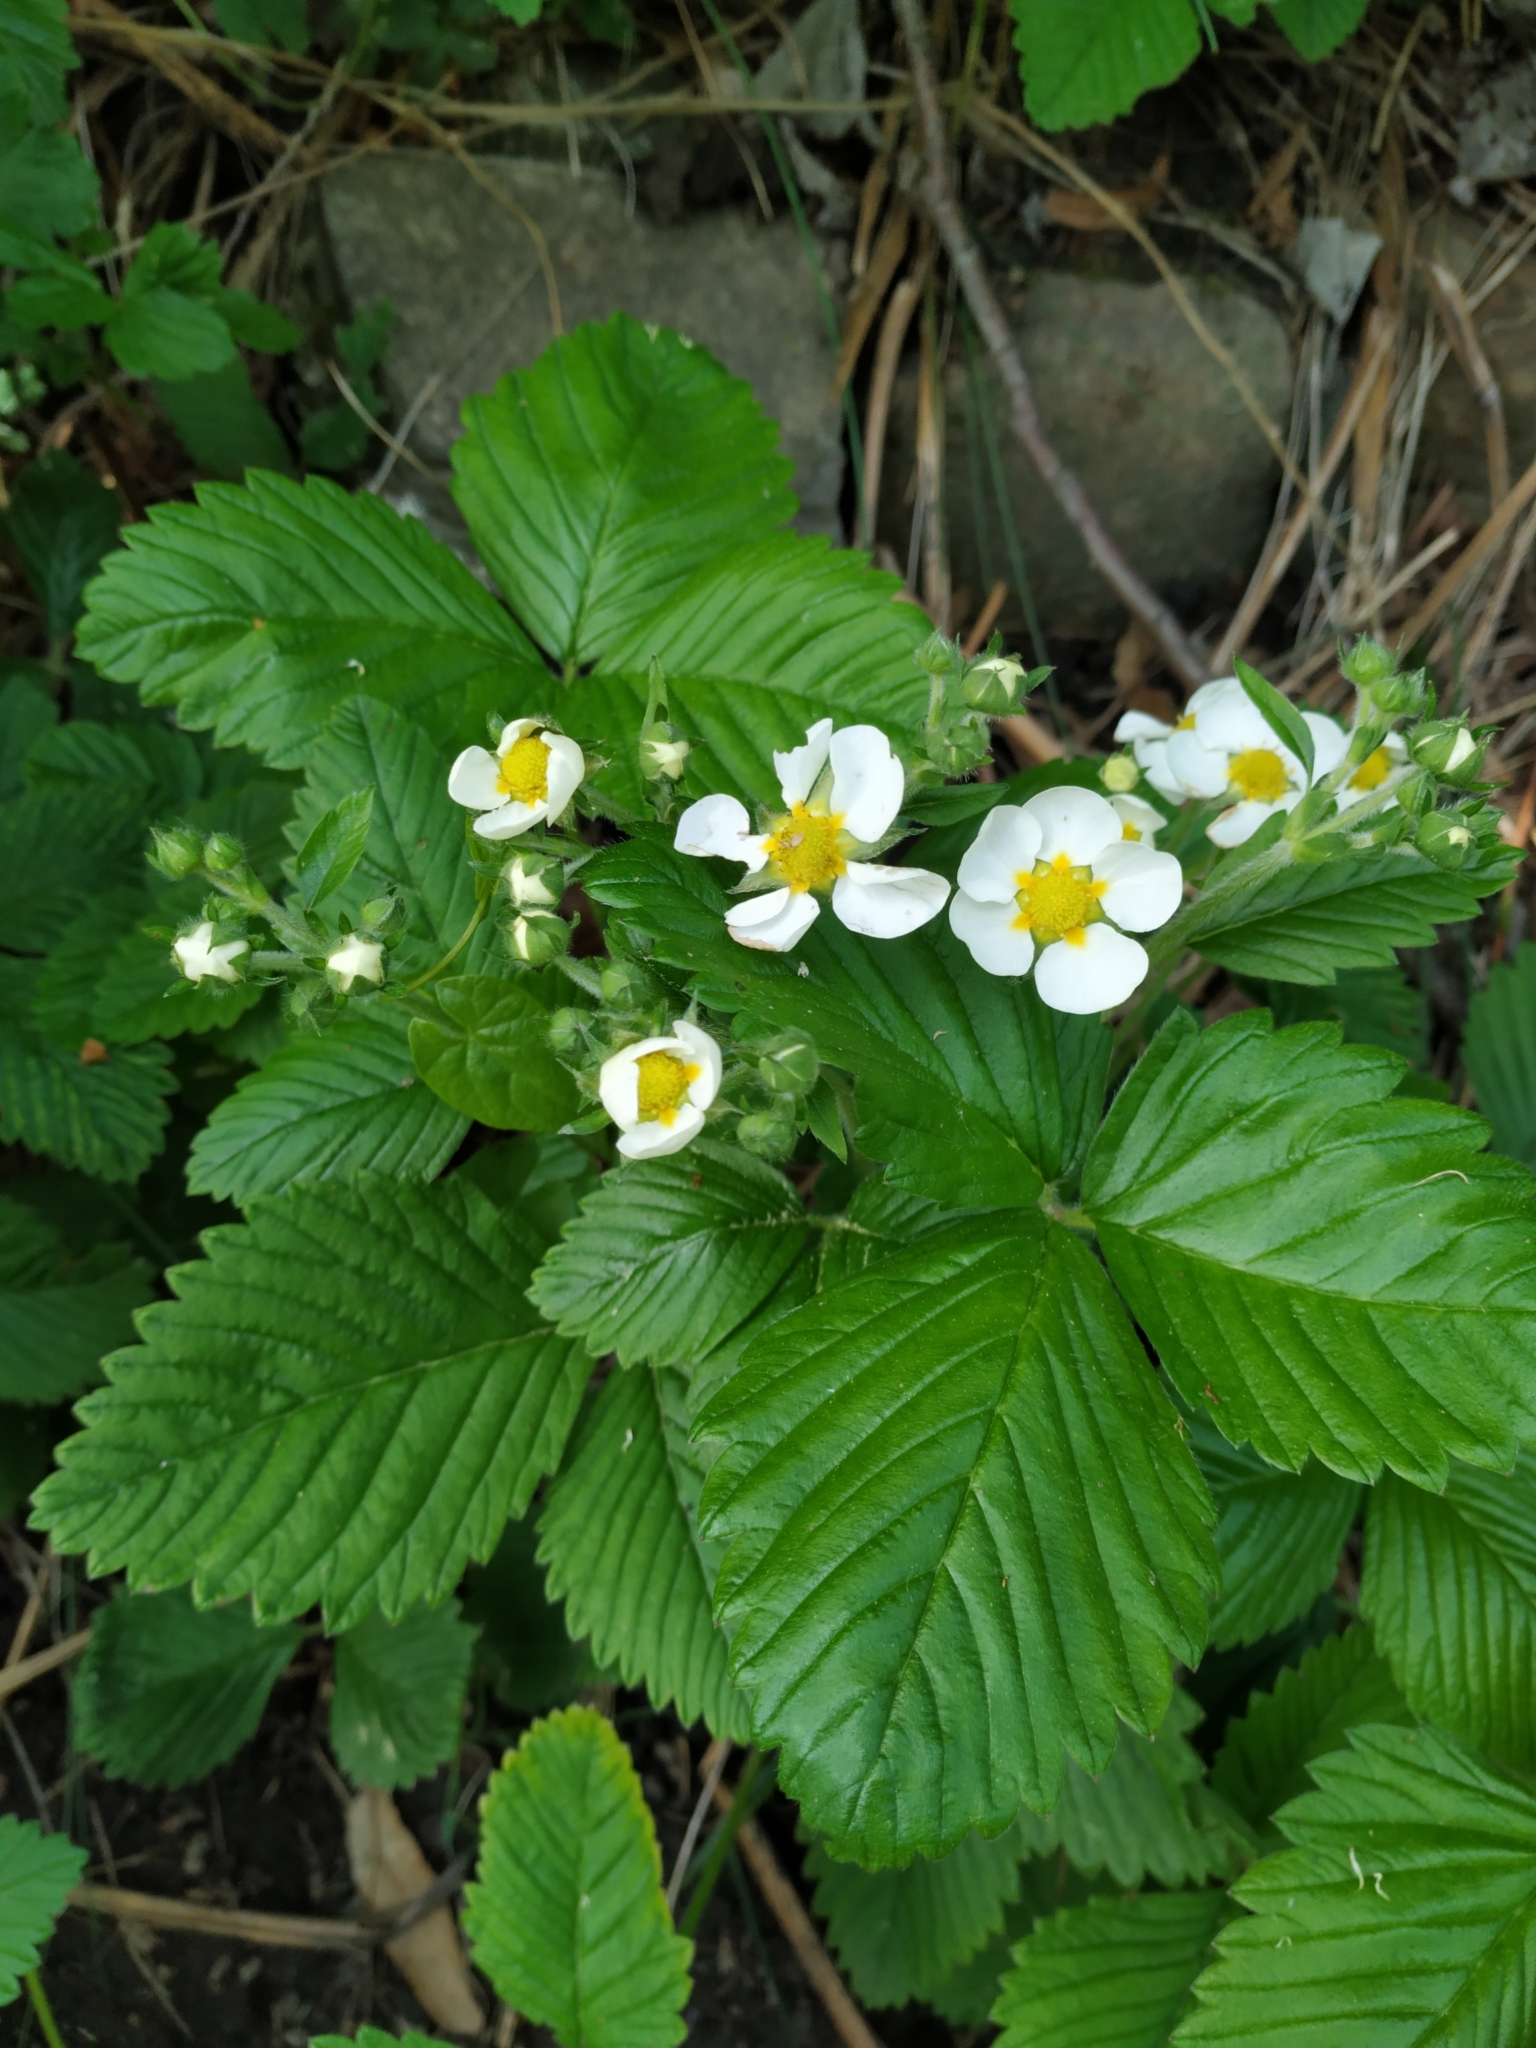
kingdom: Plantae
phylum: Tracheophyta
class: Magnoliopsida
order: Rosales
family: Rosaceae
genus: Fragaria
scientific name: Fragaria ananassa
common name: Garden strawberry
